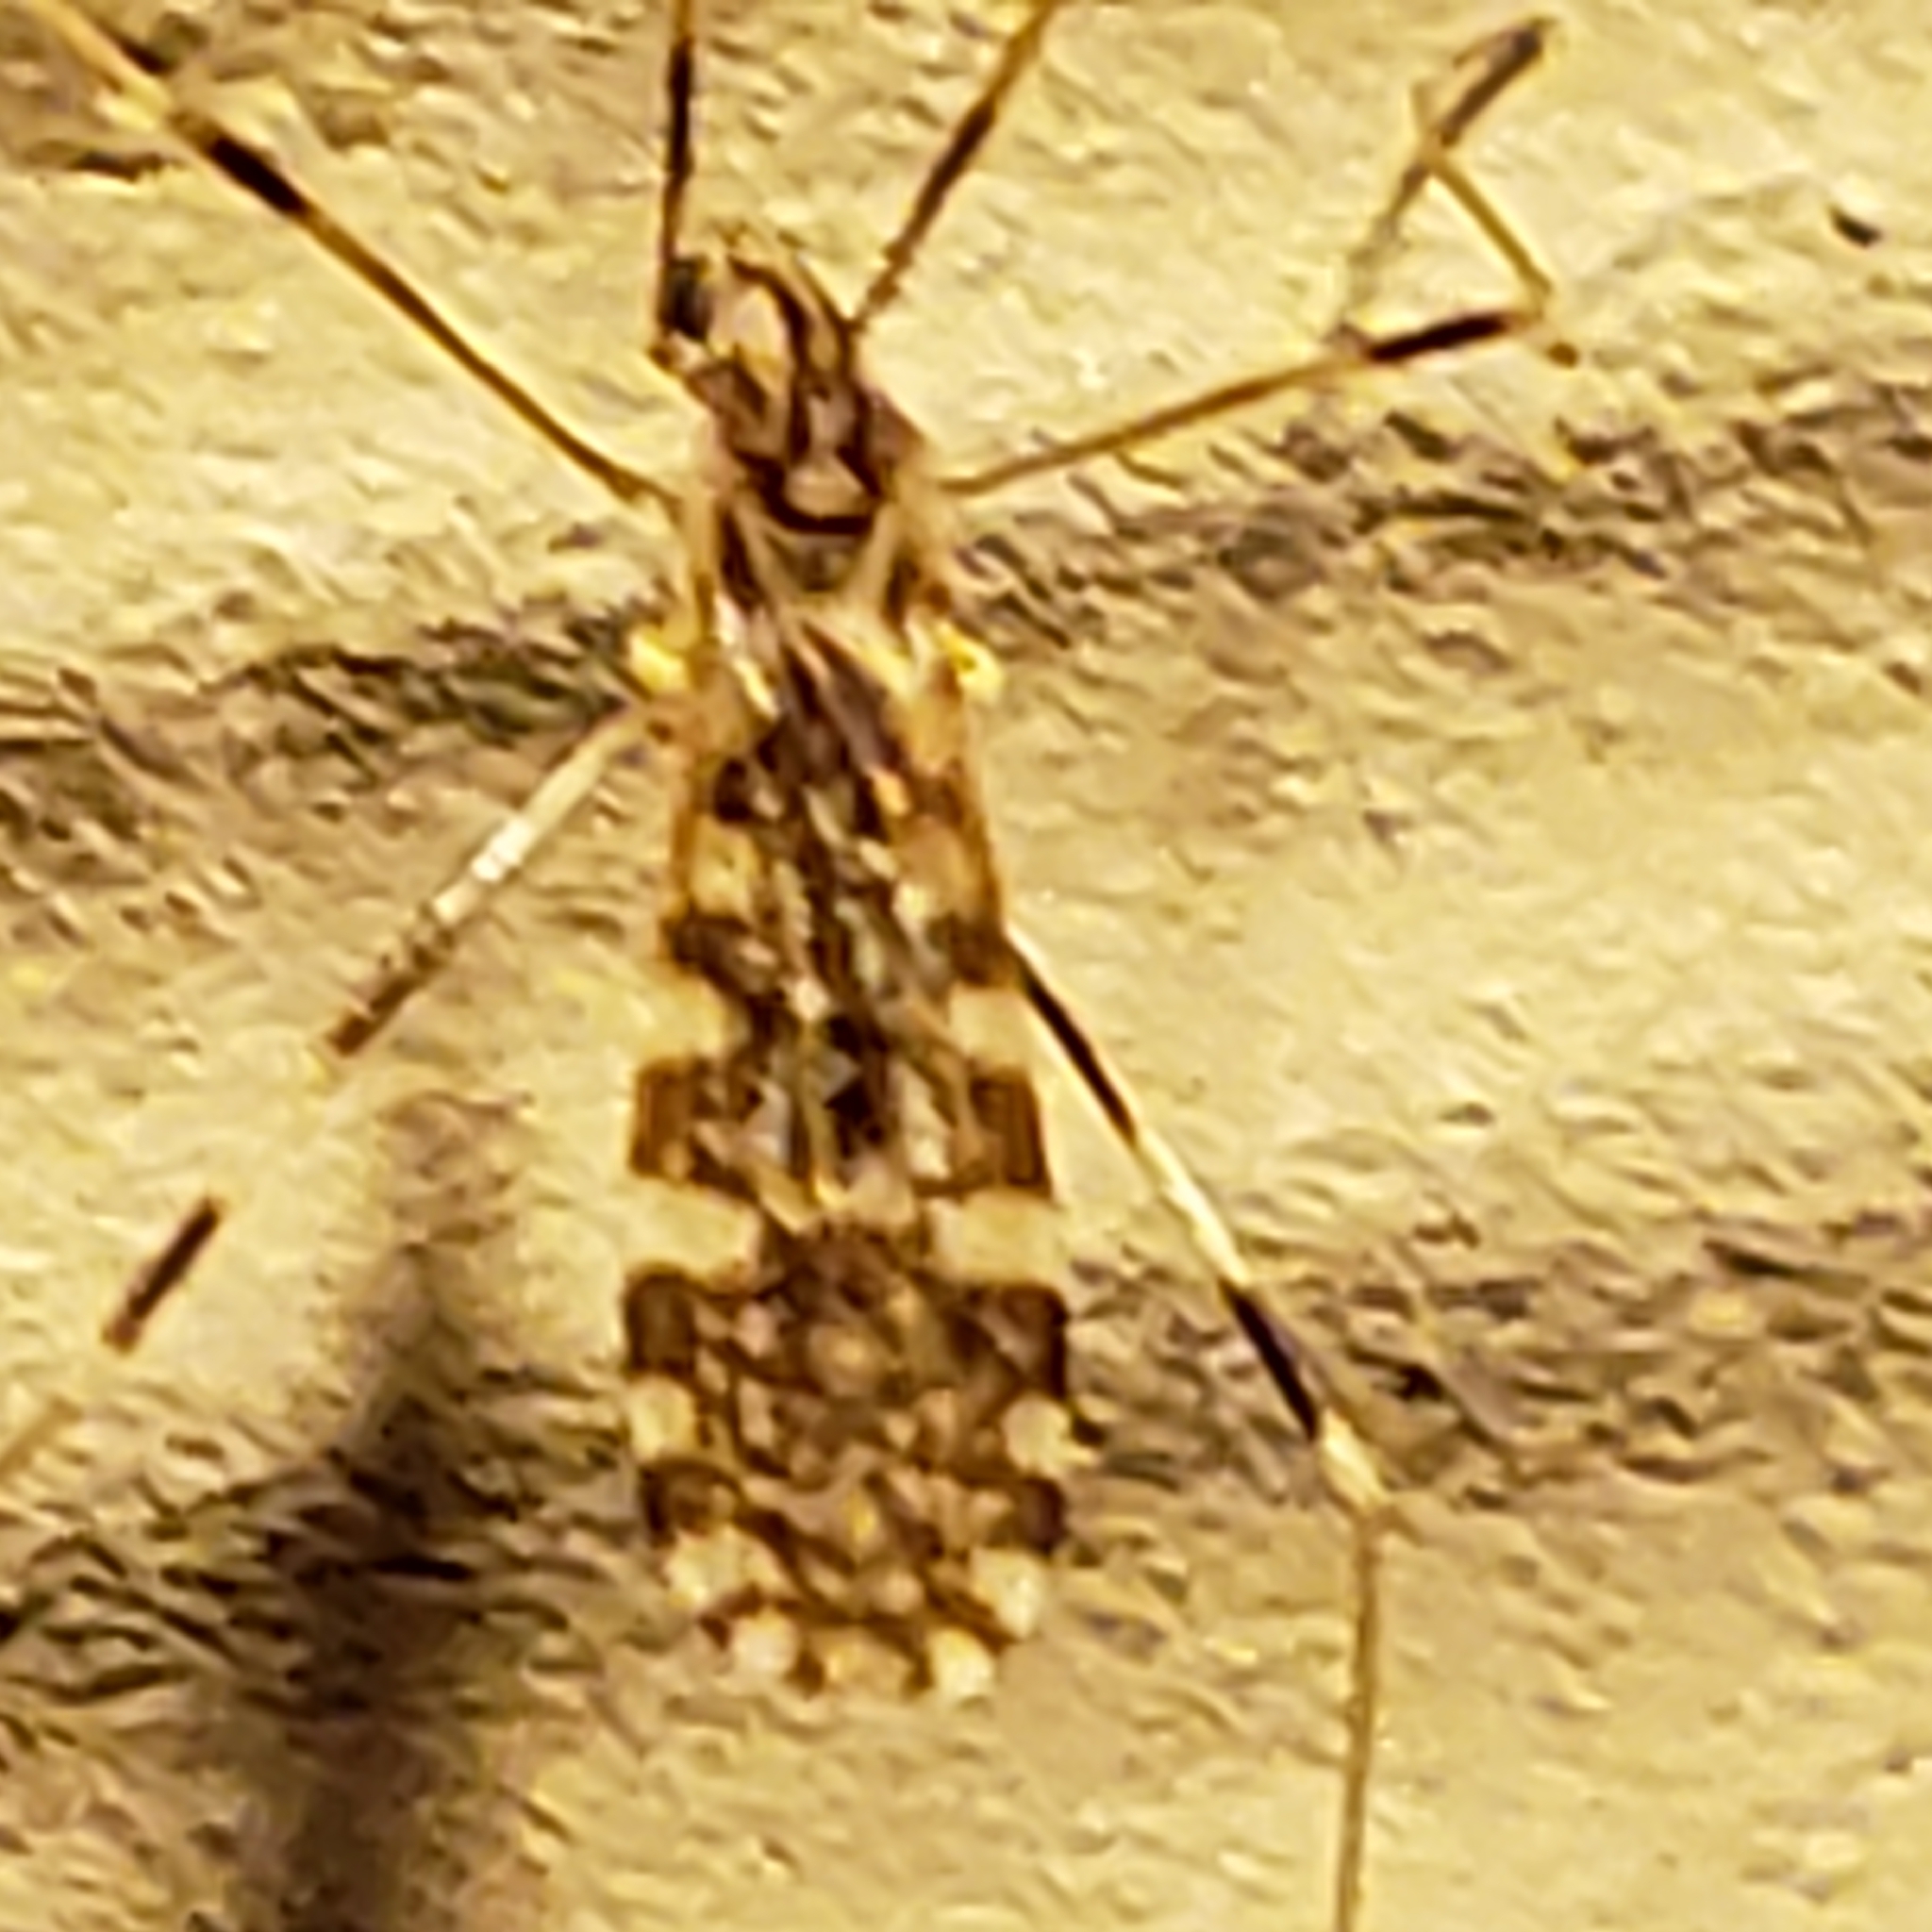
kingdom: Animalia
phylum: Arthropoda
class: Insecta
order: Diptera
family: Limoniidae
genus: Erioptera
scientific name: Erioptera caliptera
